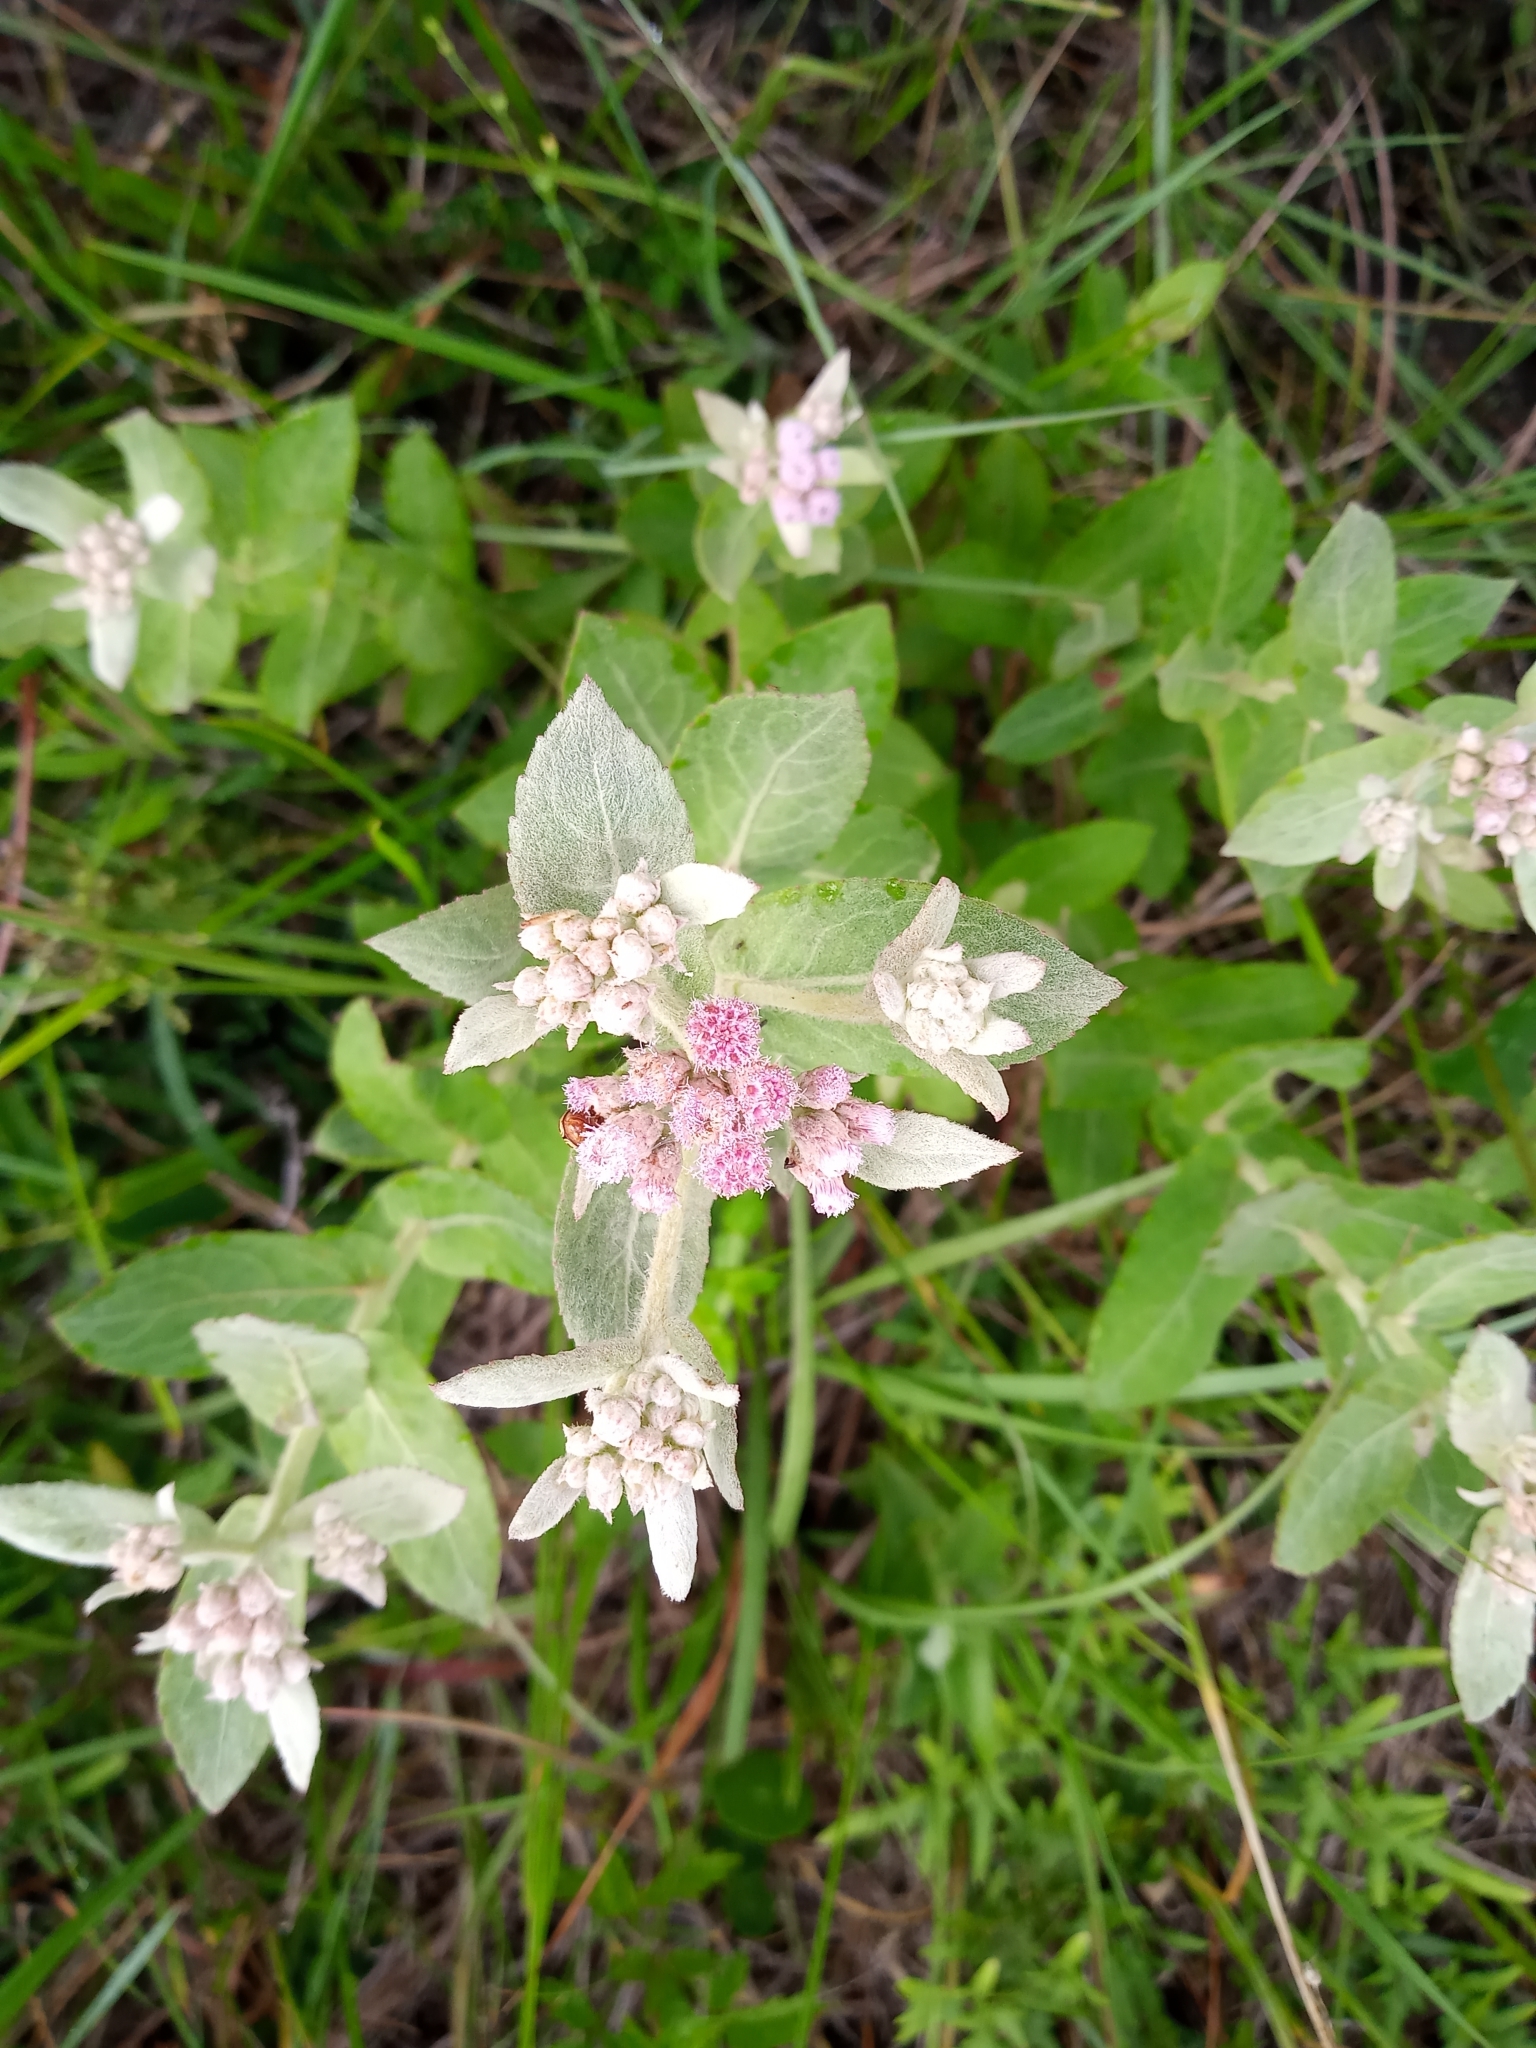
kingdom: Plantae
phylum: Tracheophyta
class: Magnoliopsida
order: Asterales
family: Asteraceae
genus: Pluchea
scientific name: Pluchea baccharis
